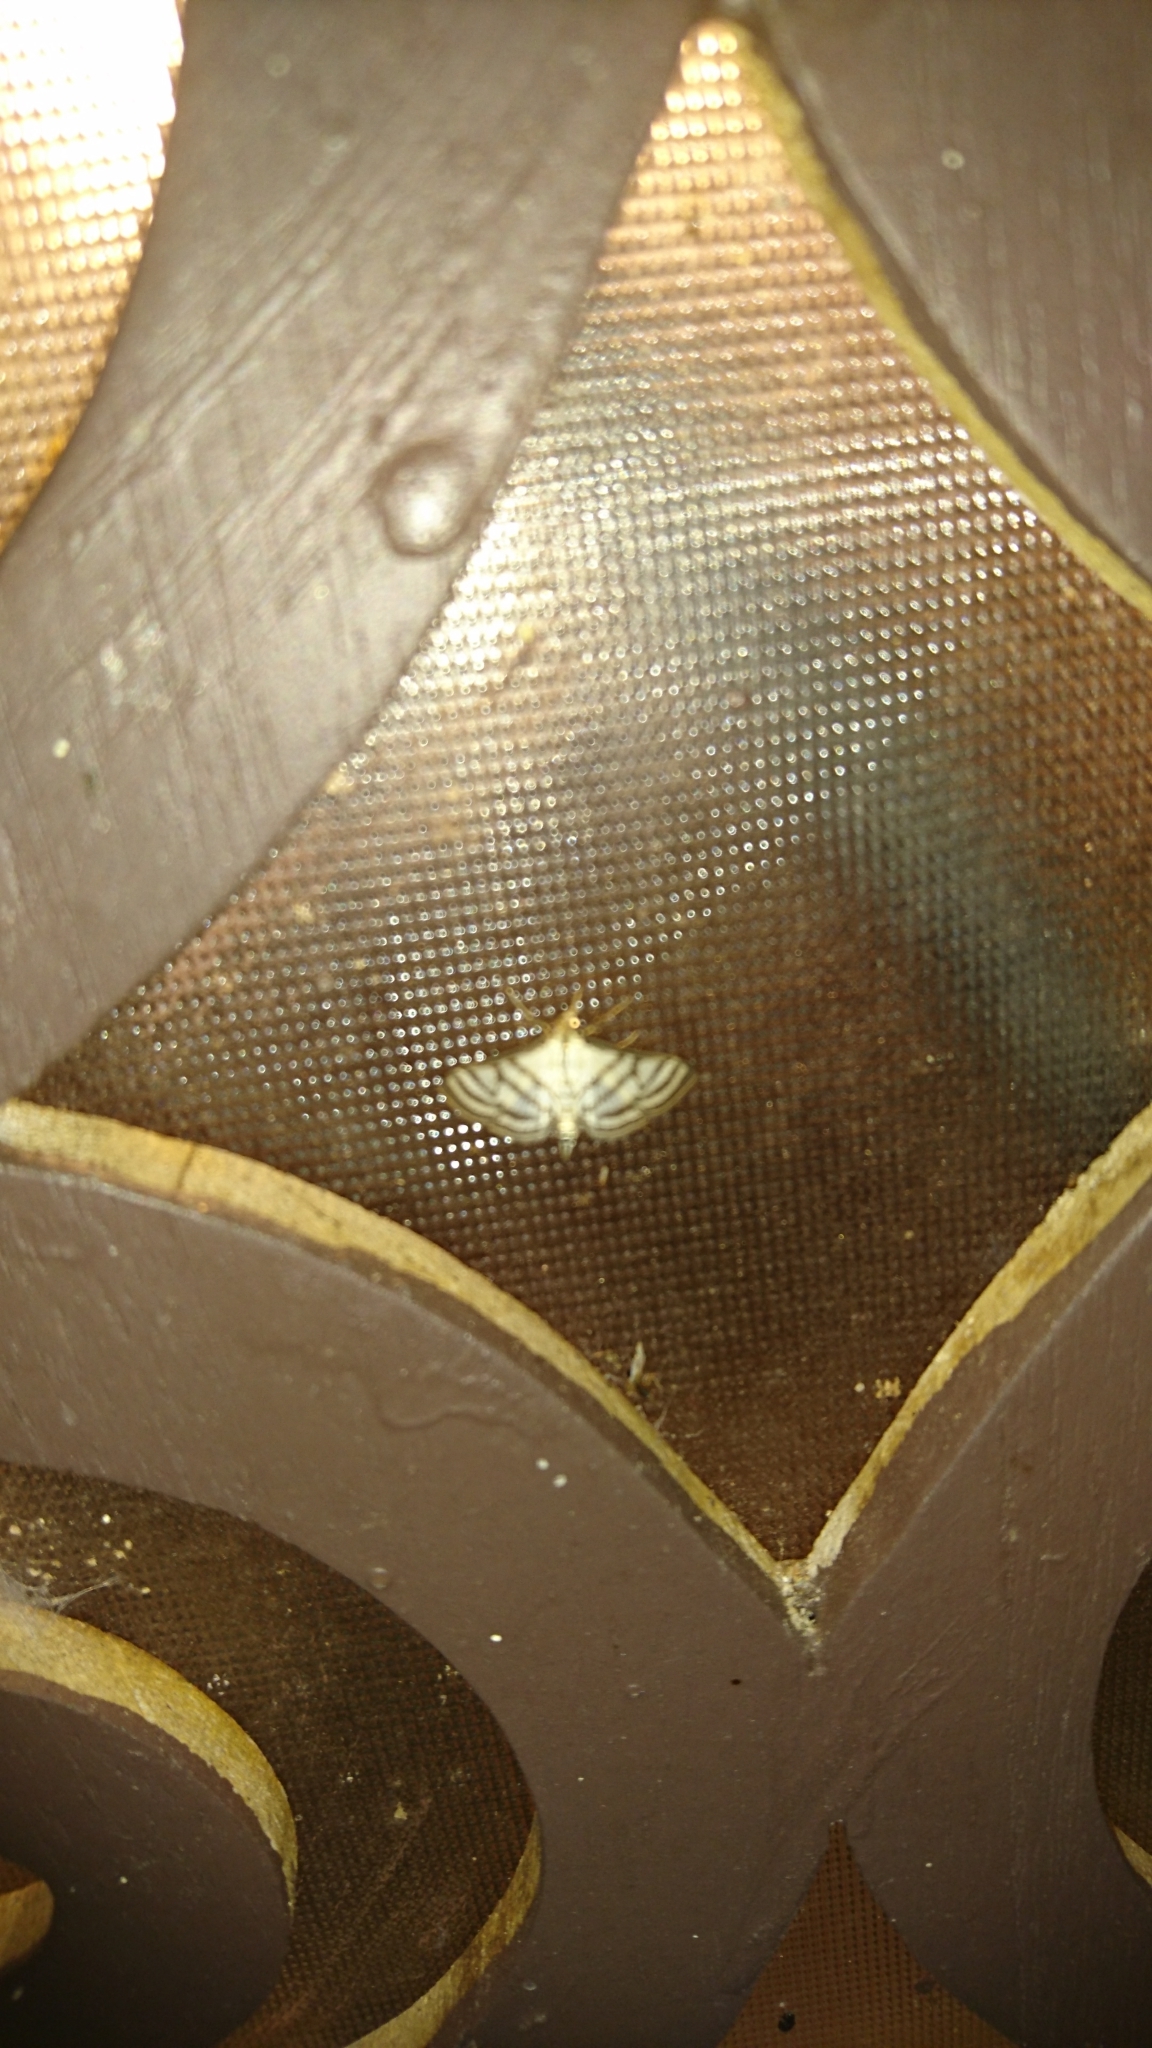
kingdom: Animalia
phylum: Arthropoda
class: Insecta
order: Lepidoptera
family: Crambidae
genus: Ravanoa
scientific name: Ravanoa xiphialis
